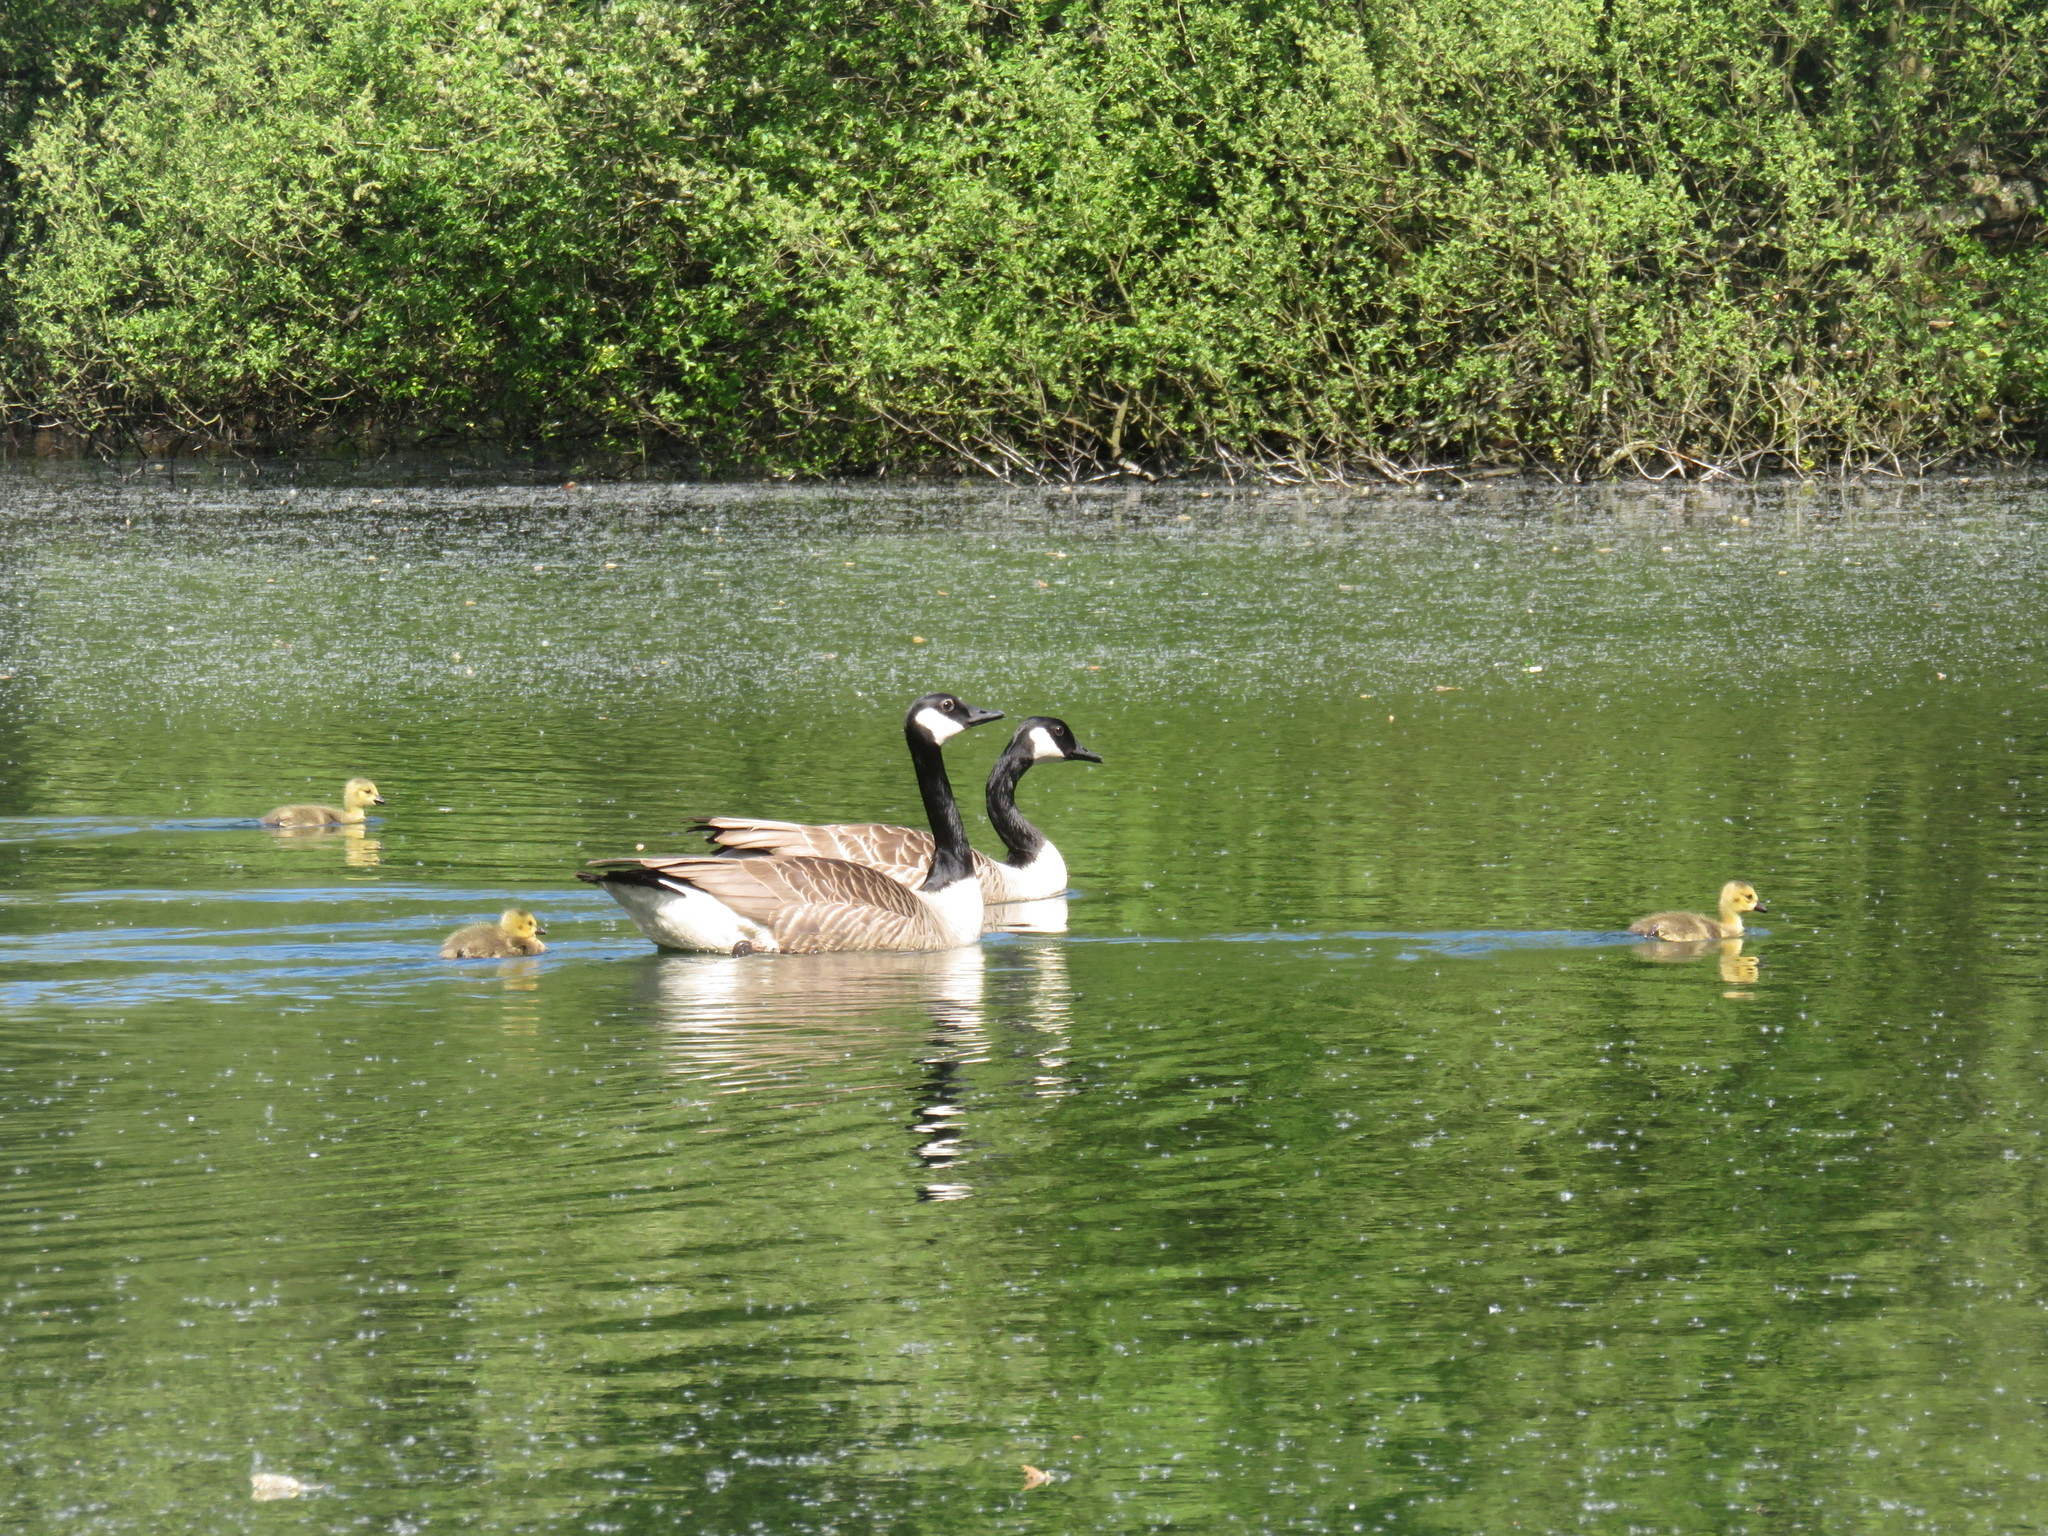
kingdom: Animalia
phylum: Chordata
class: Aves
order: Anseriformes
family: Anatidae
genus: Branta
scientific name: Branta canadensis
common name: Canada goose
